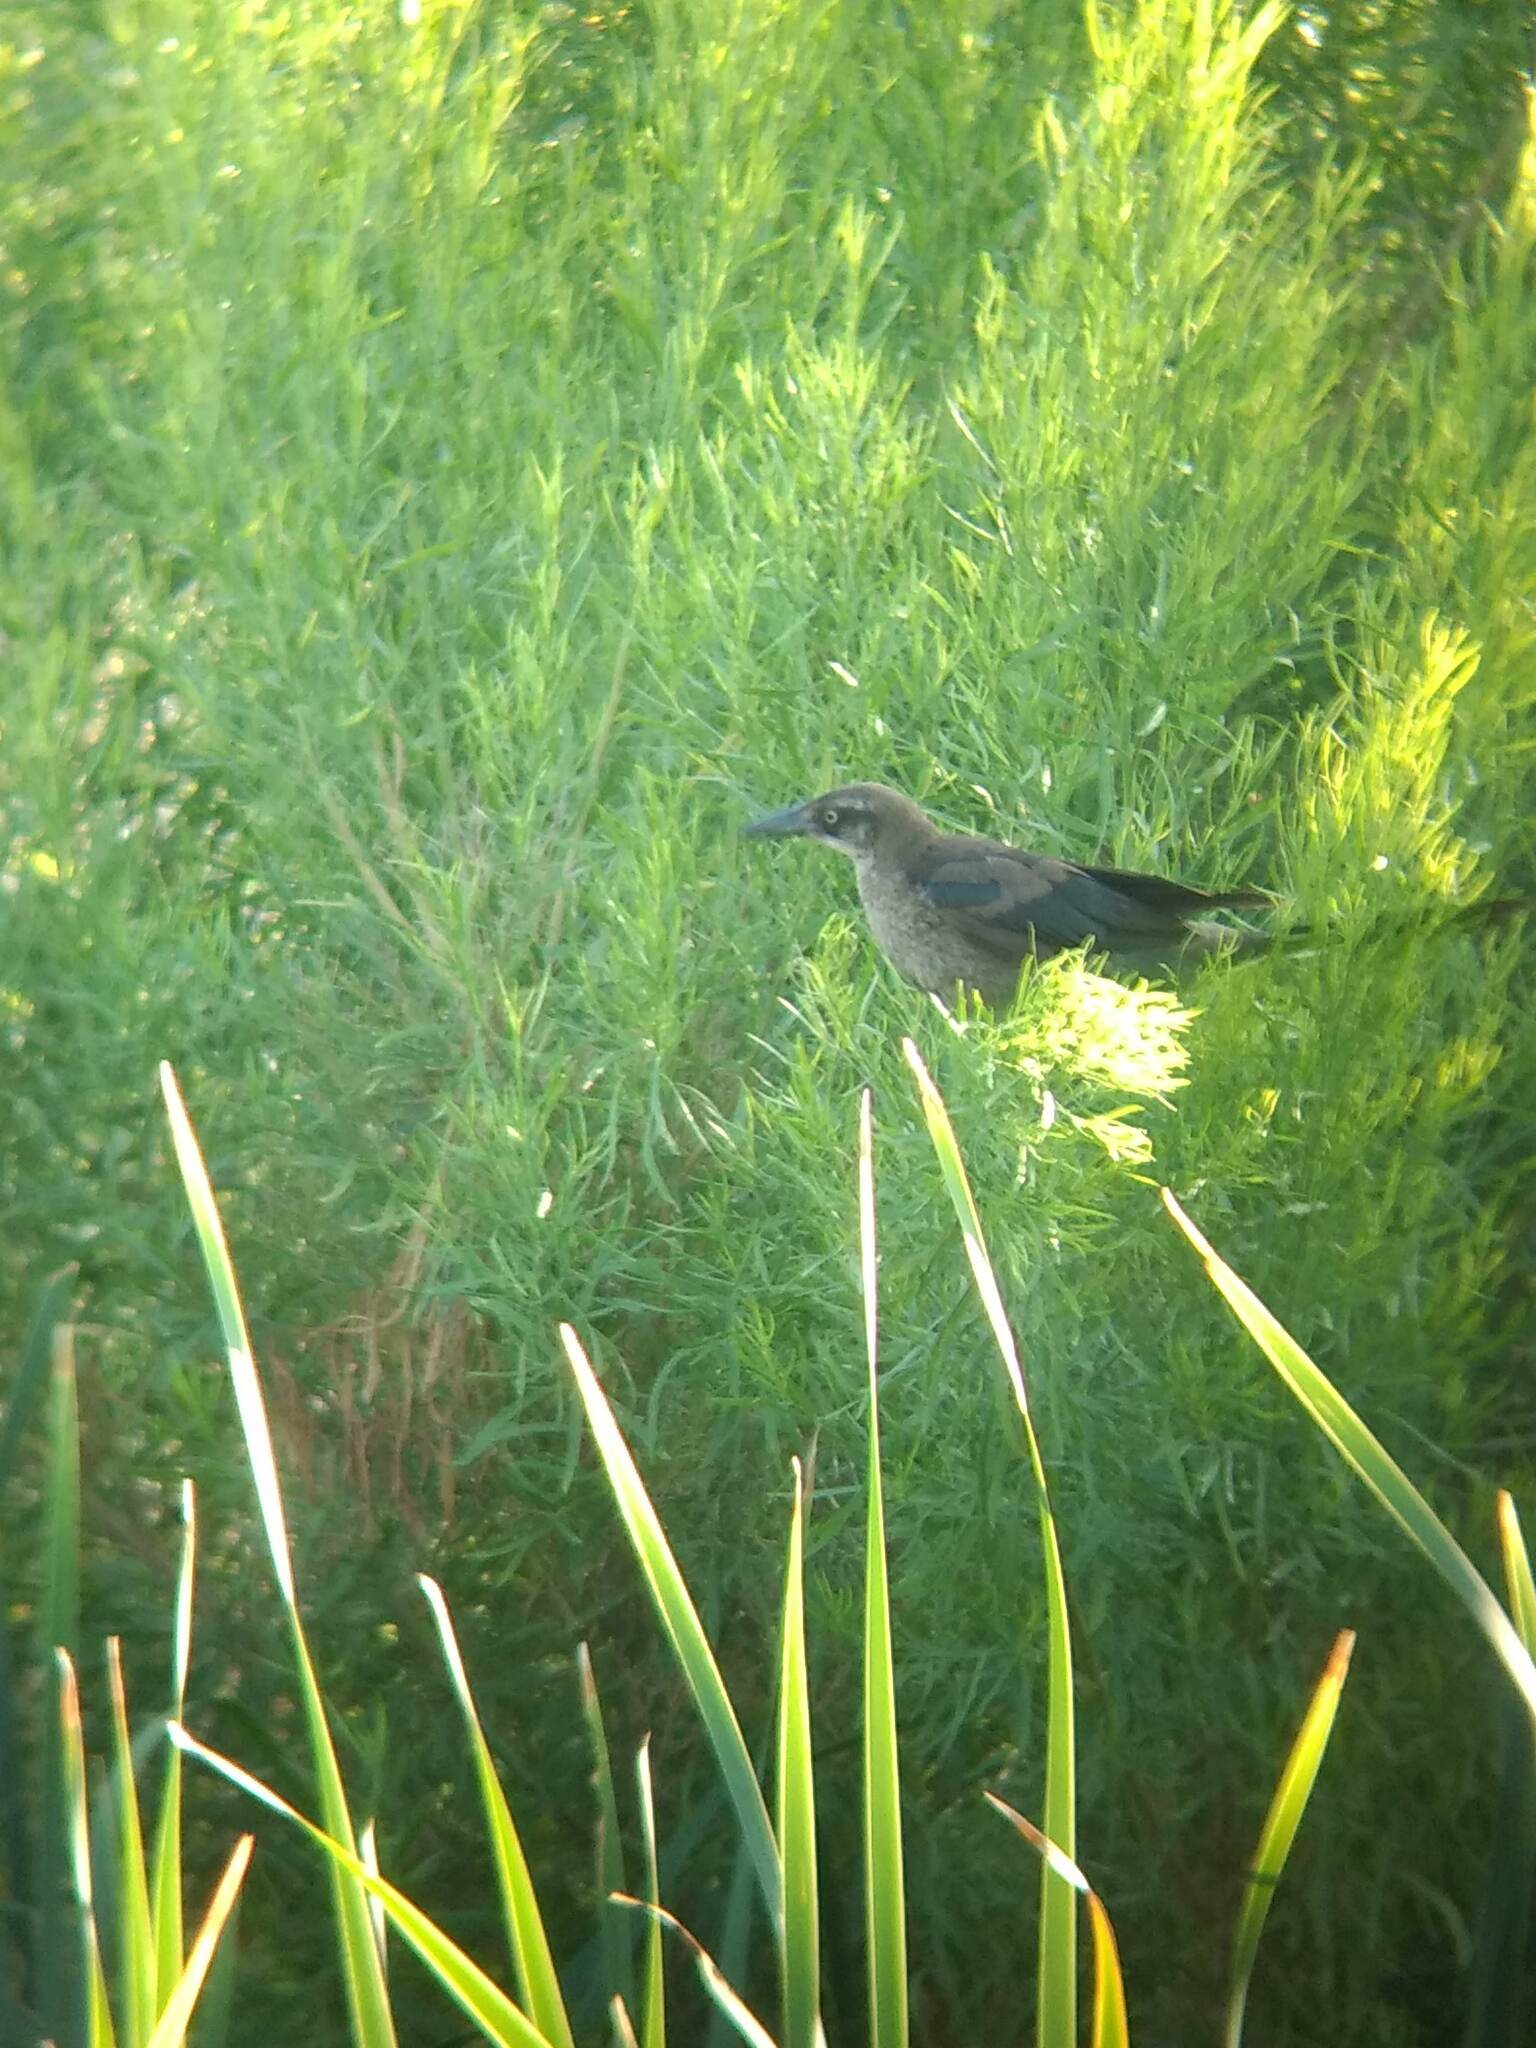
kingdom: Animalia
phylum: Chordata
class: Aves
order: Passeriformes
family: Icteridae
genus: Quiscalus
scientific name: Quiscalus mexicanus
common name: Great-tailed grackle
